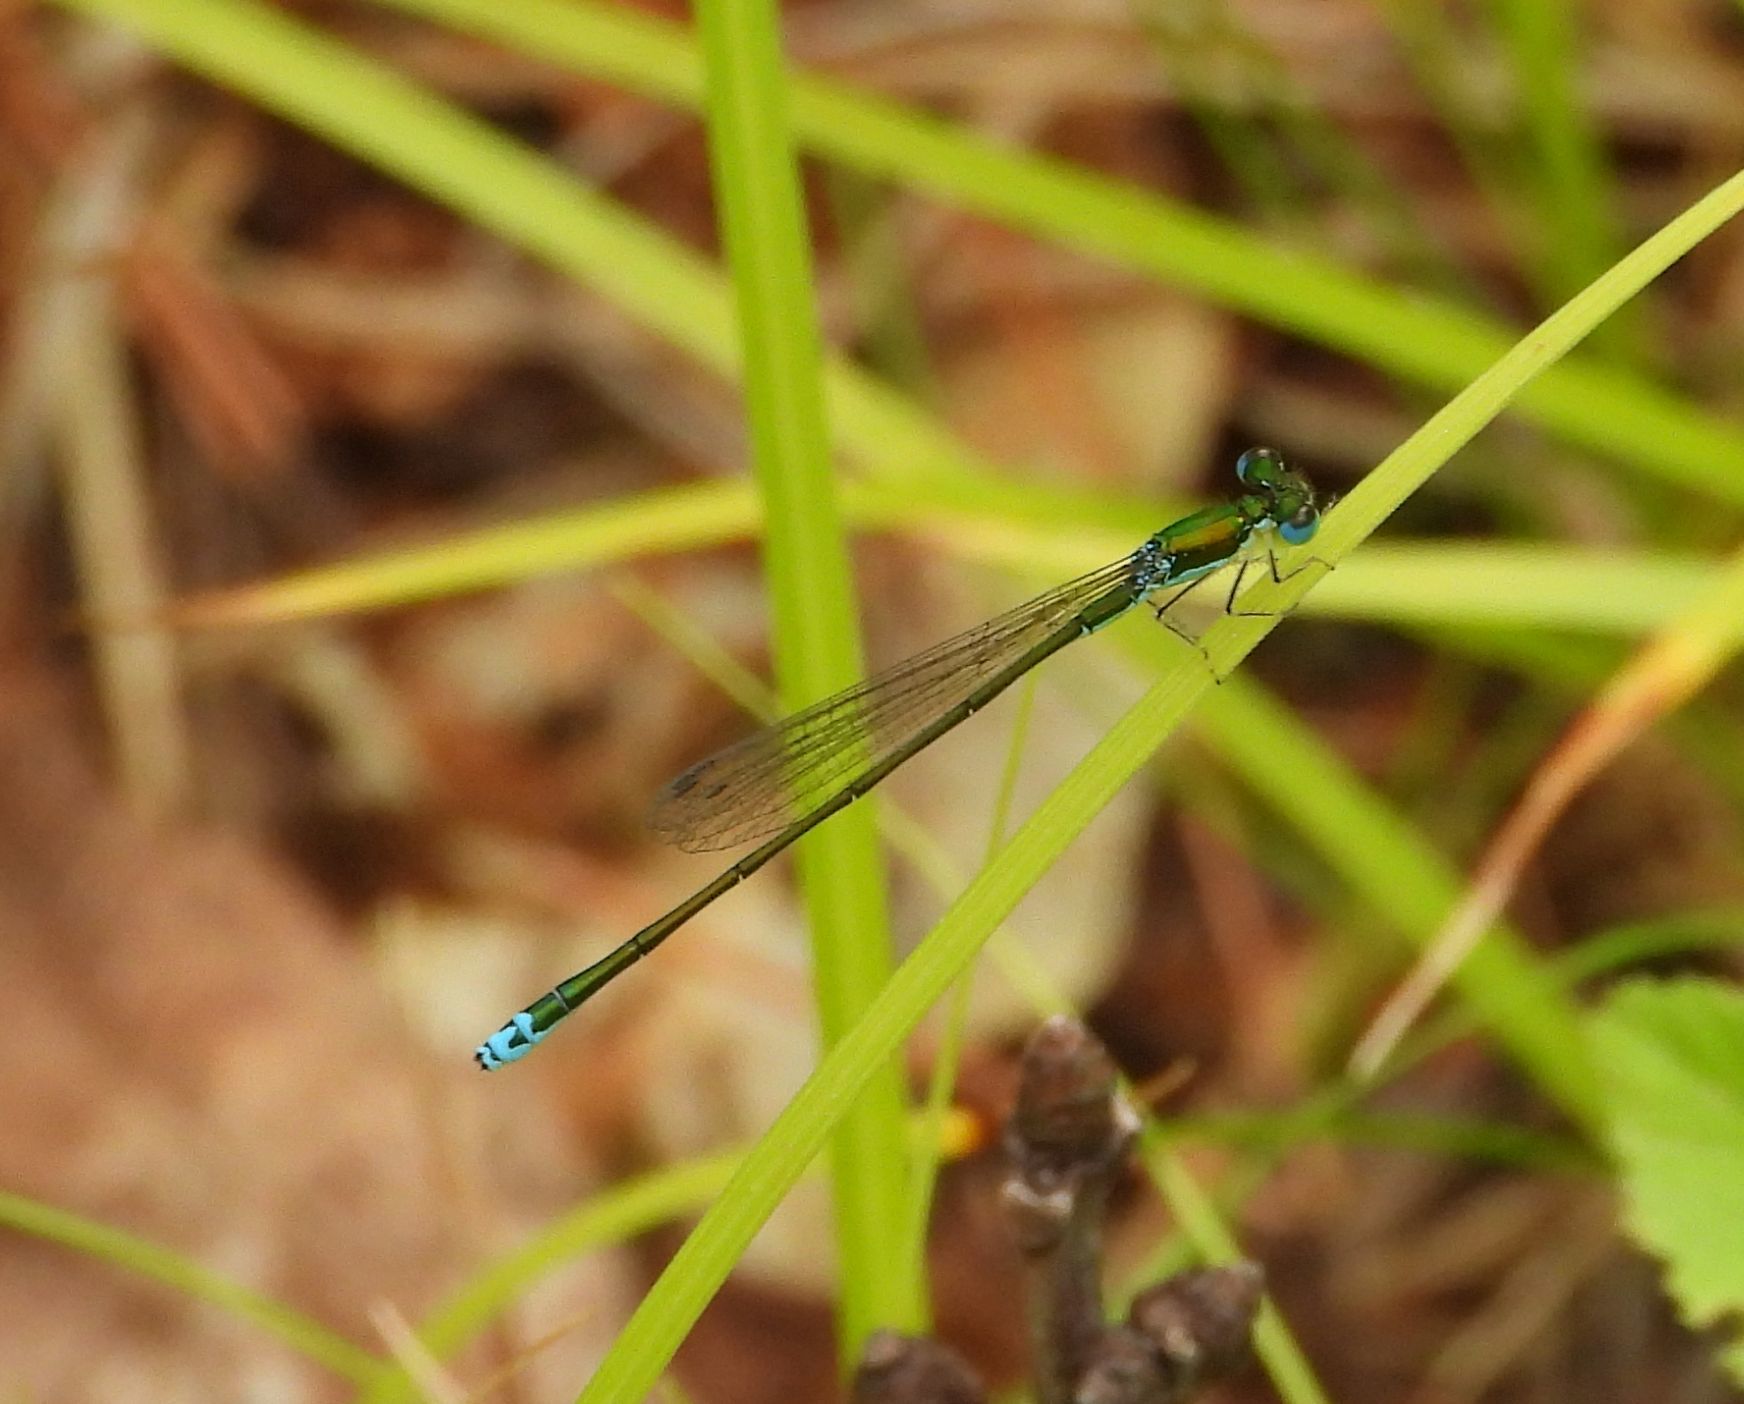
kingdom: Animalia
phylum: Arthropoda
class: Insecta
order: Odonata
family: Coenagrionidae
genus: Nehalennia
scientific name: Nehalennia irene
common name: Sedge sprite
